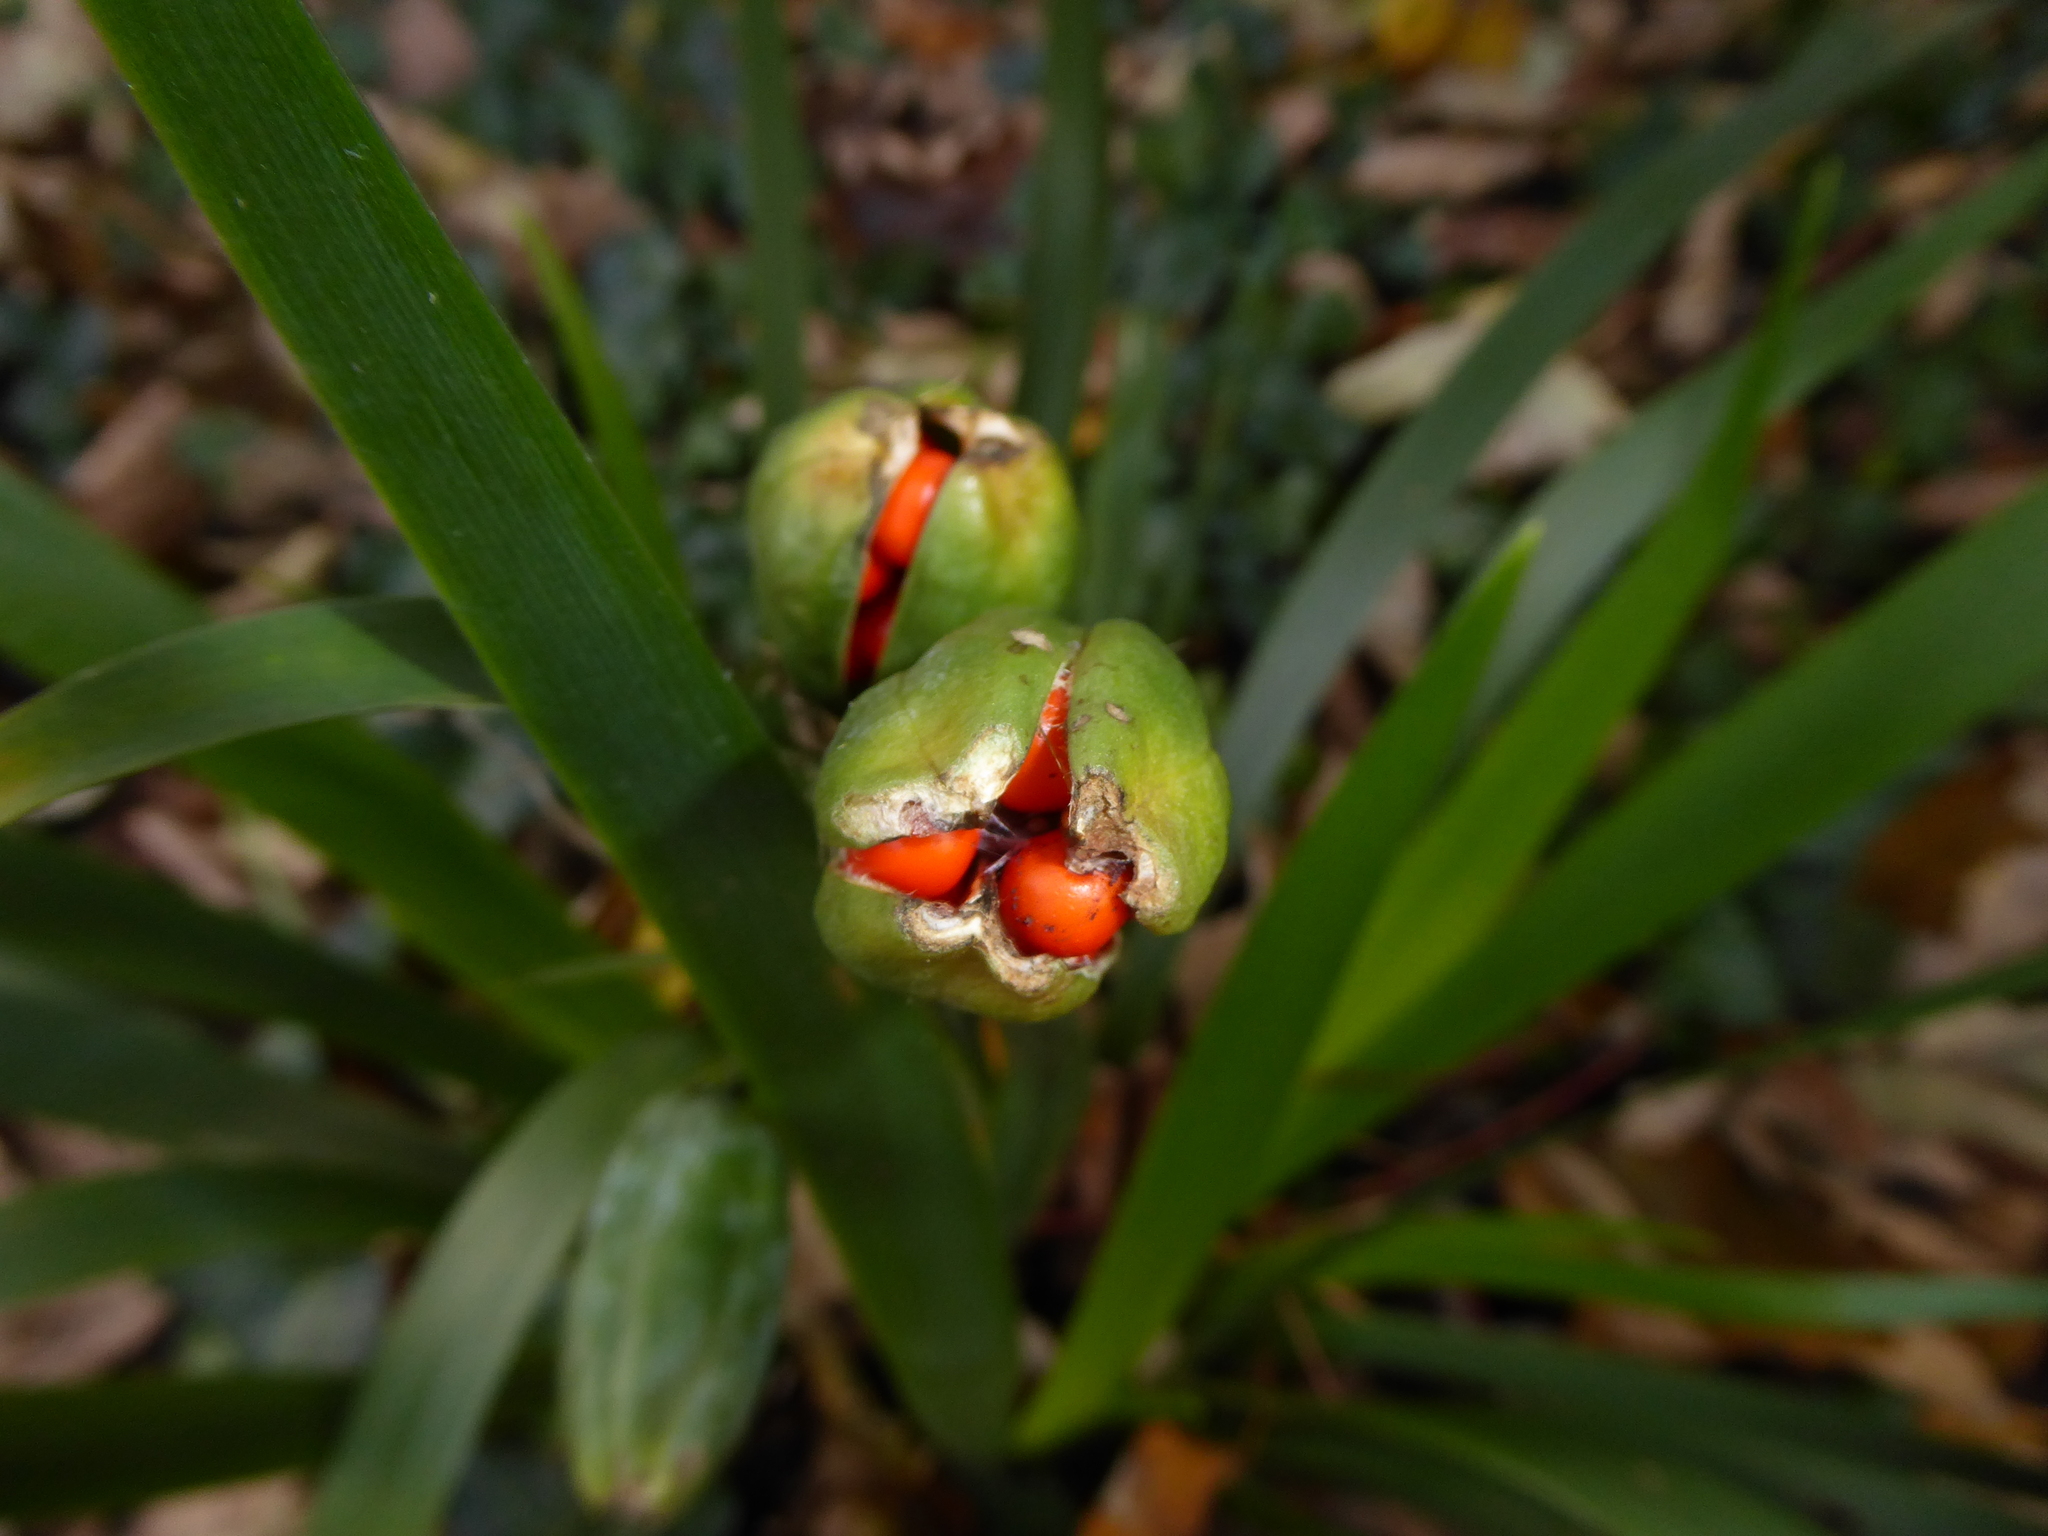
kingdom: Plantae
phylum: Tracheophyta
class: Liliopsida
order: Asparagales
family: Iridaceae
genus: Iris
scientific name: Iris foetidissima
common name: Stinking iris
